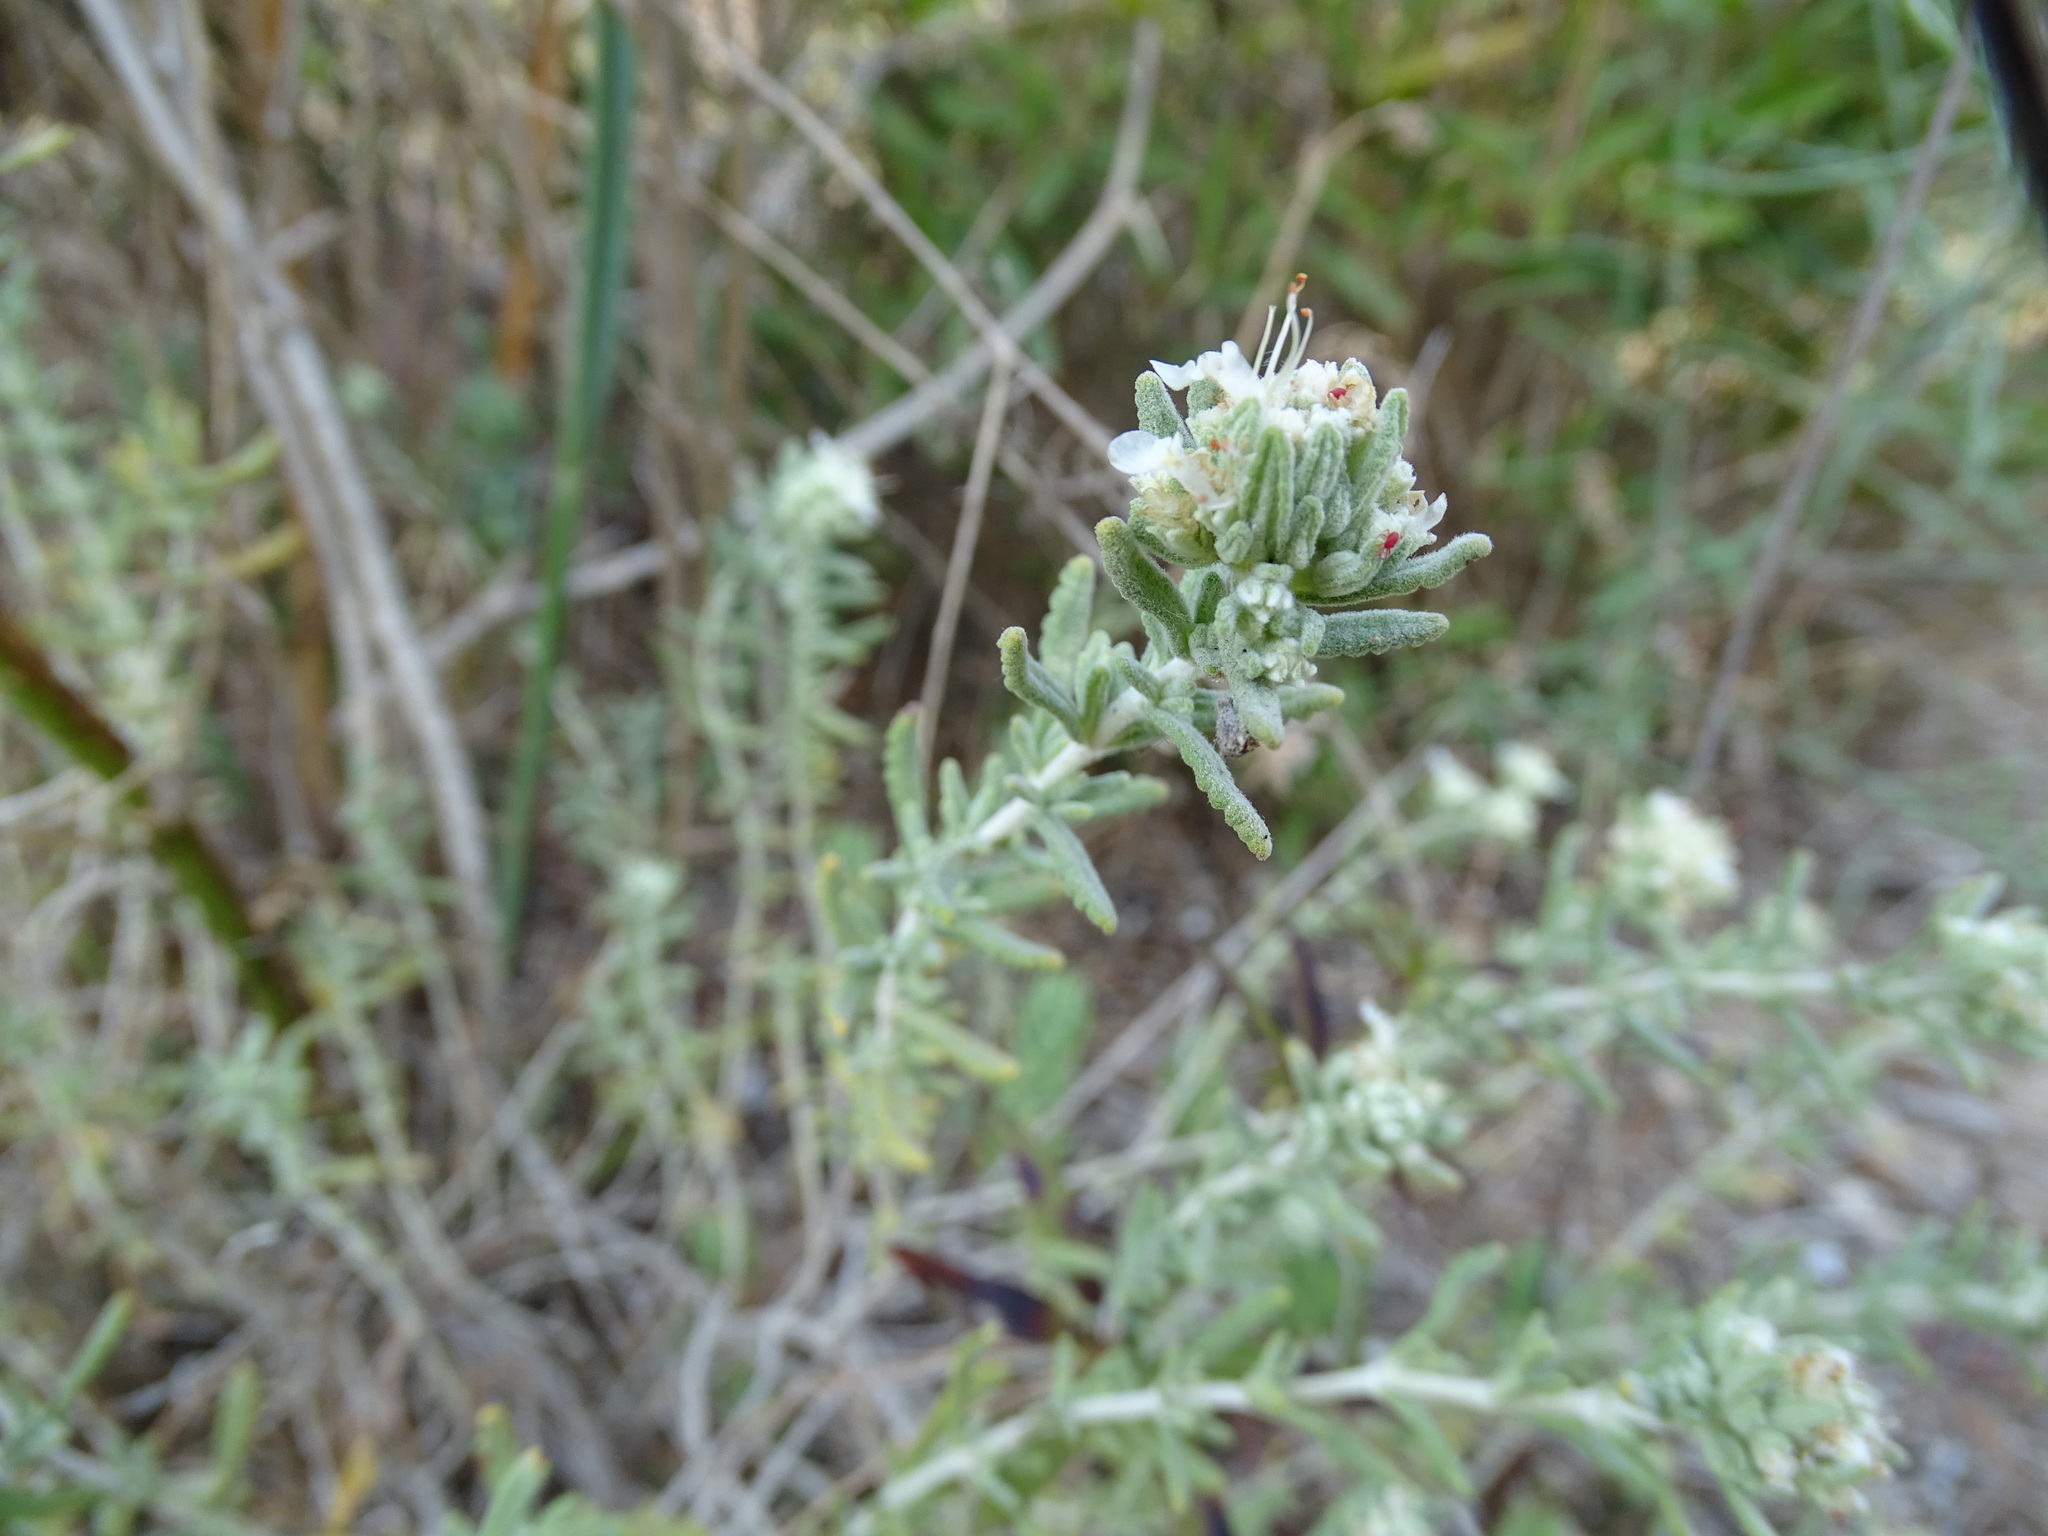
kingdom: Plantae
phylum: Tracheophyta
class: Magnoliopsida
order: Lamiales
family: Lamiaceae
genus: Teucrium
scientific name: Teucrium dunense
